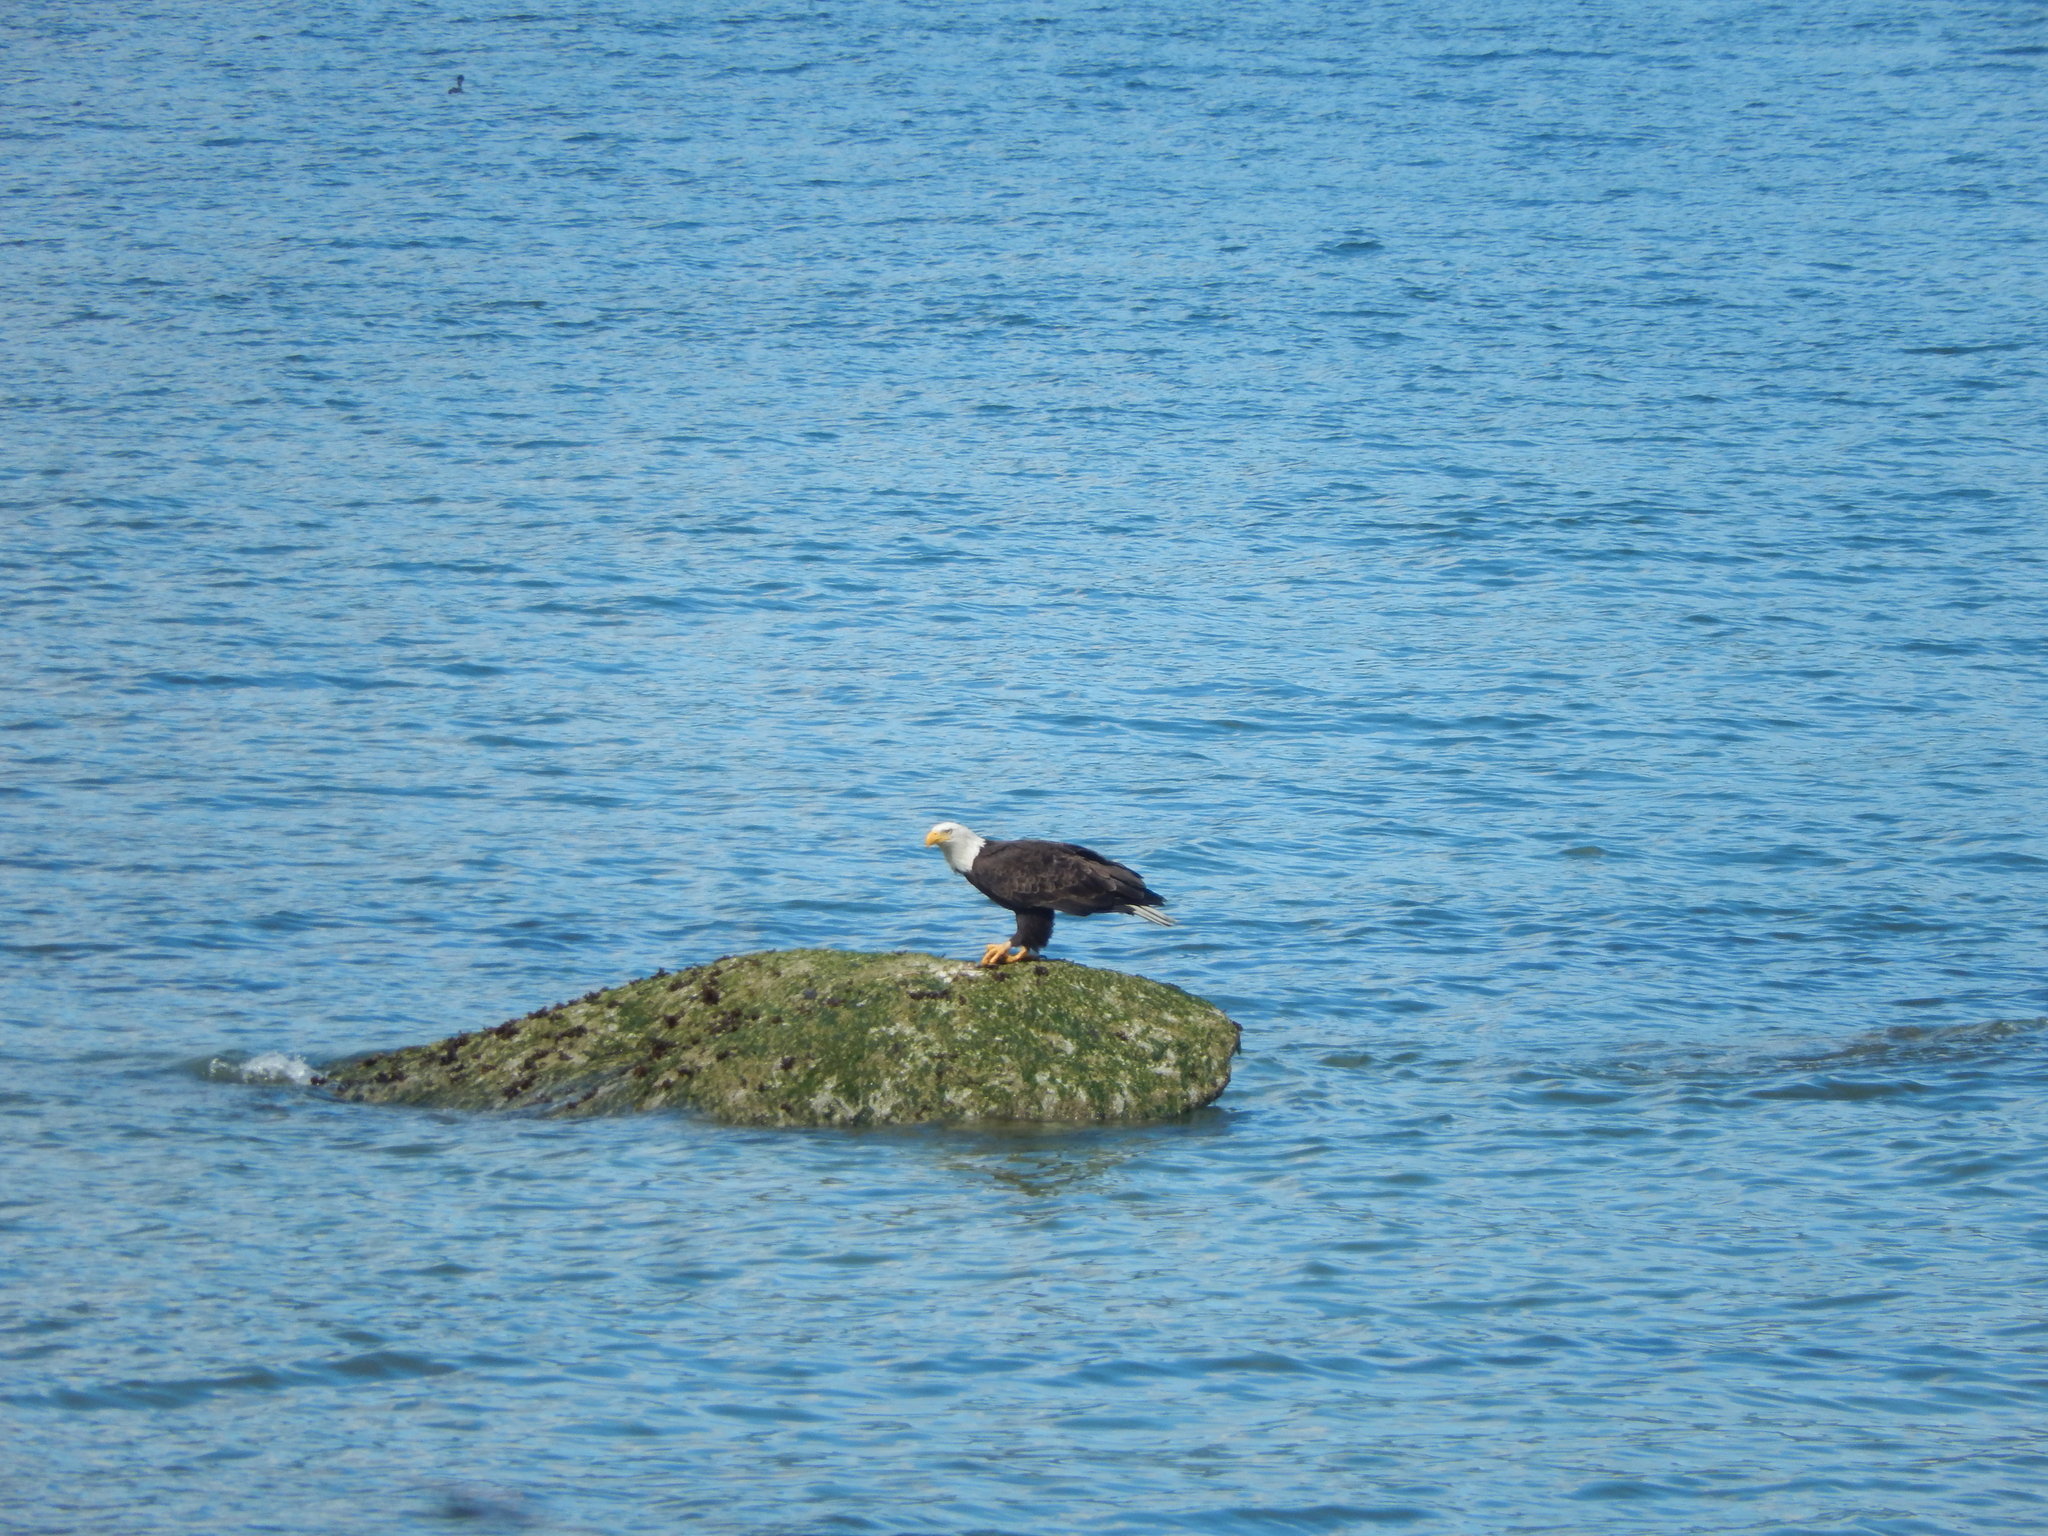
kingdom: Animalia
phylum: Chordata
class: Aves
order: Accipitriformes
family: Accipitridae
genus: Haliaeetus
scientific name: Haliaeetus leucocephalus
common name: Bald eagle
